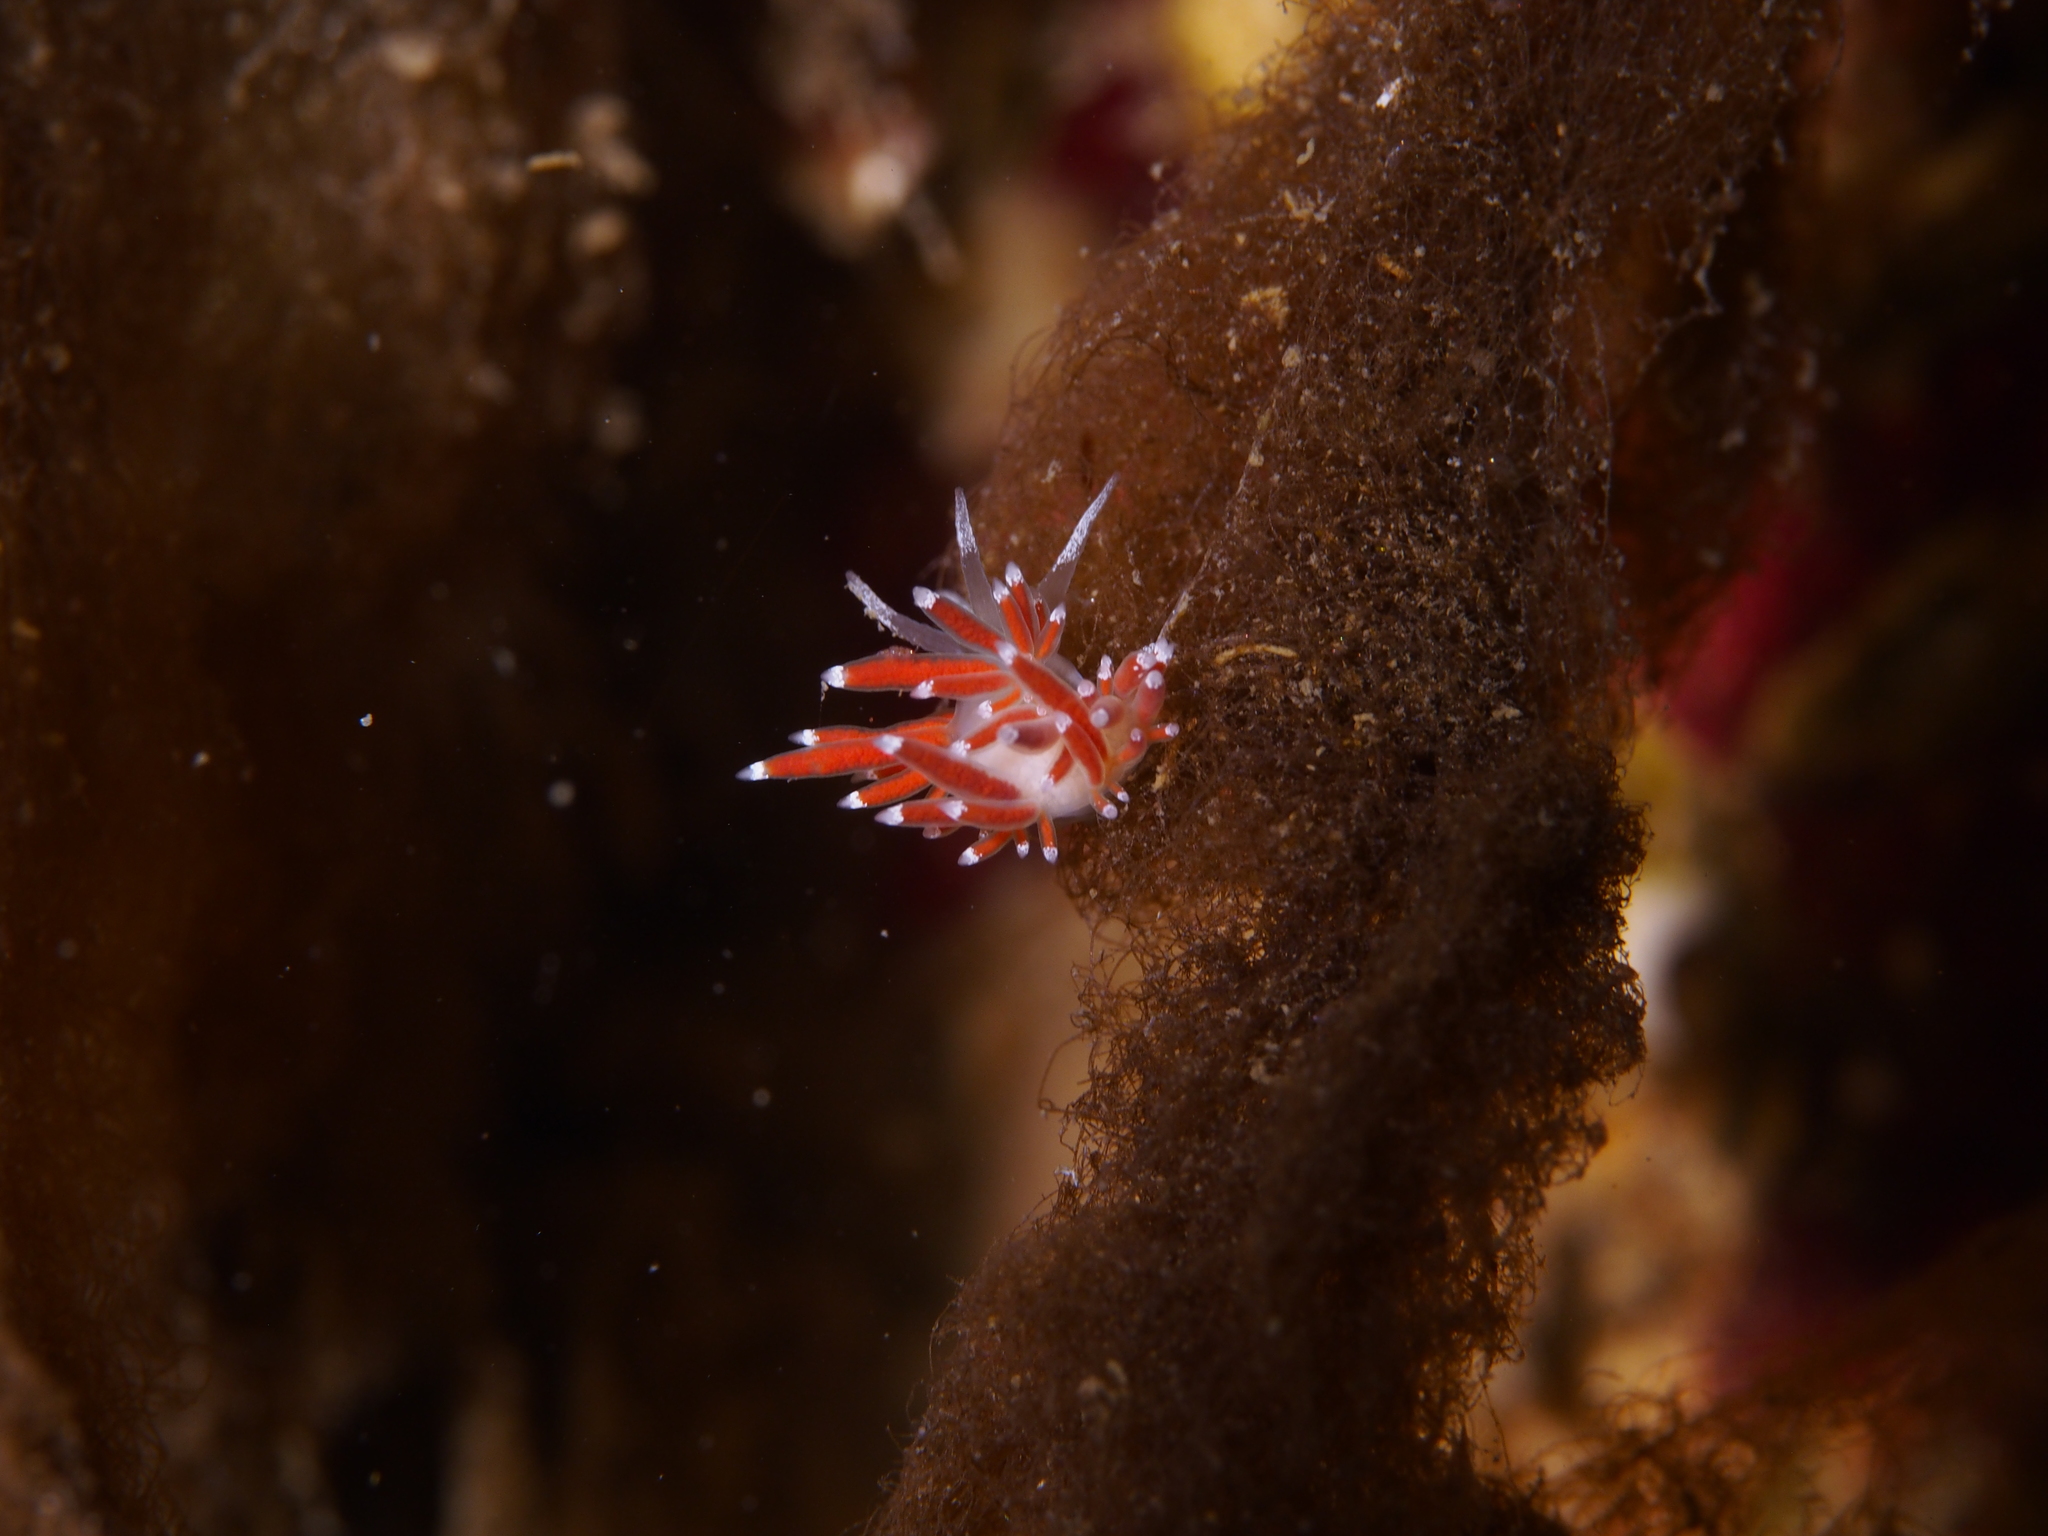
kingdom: Animalia
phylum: Mollusca
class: Gastropoda
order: Nudibranchia
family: Coryphellidae
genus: Coryphella
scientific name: Coryphella gracilis
